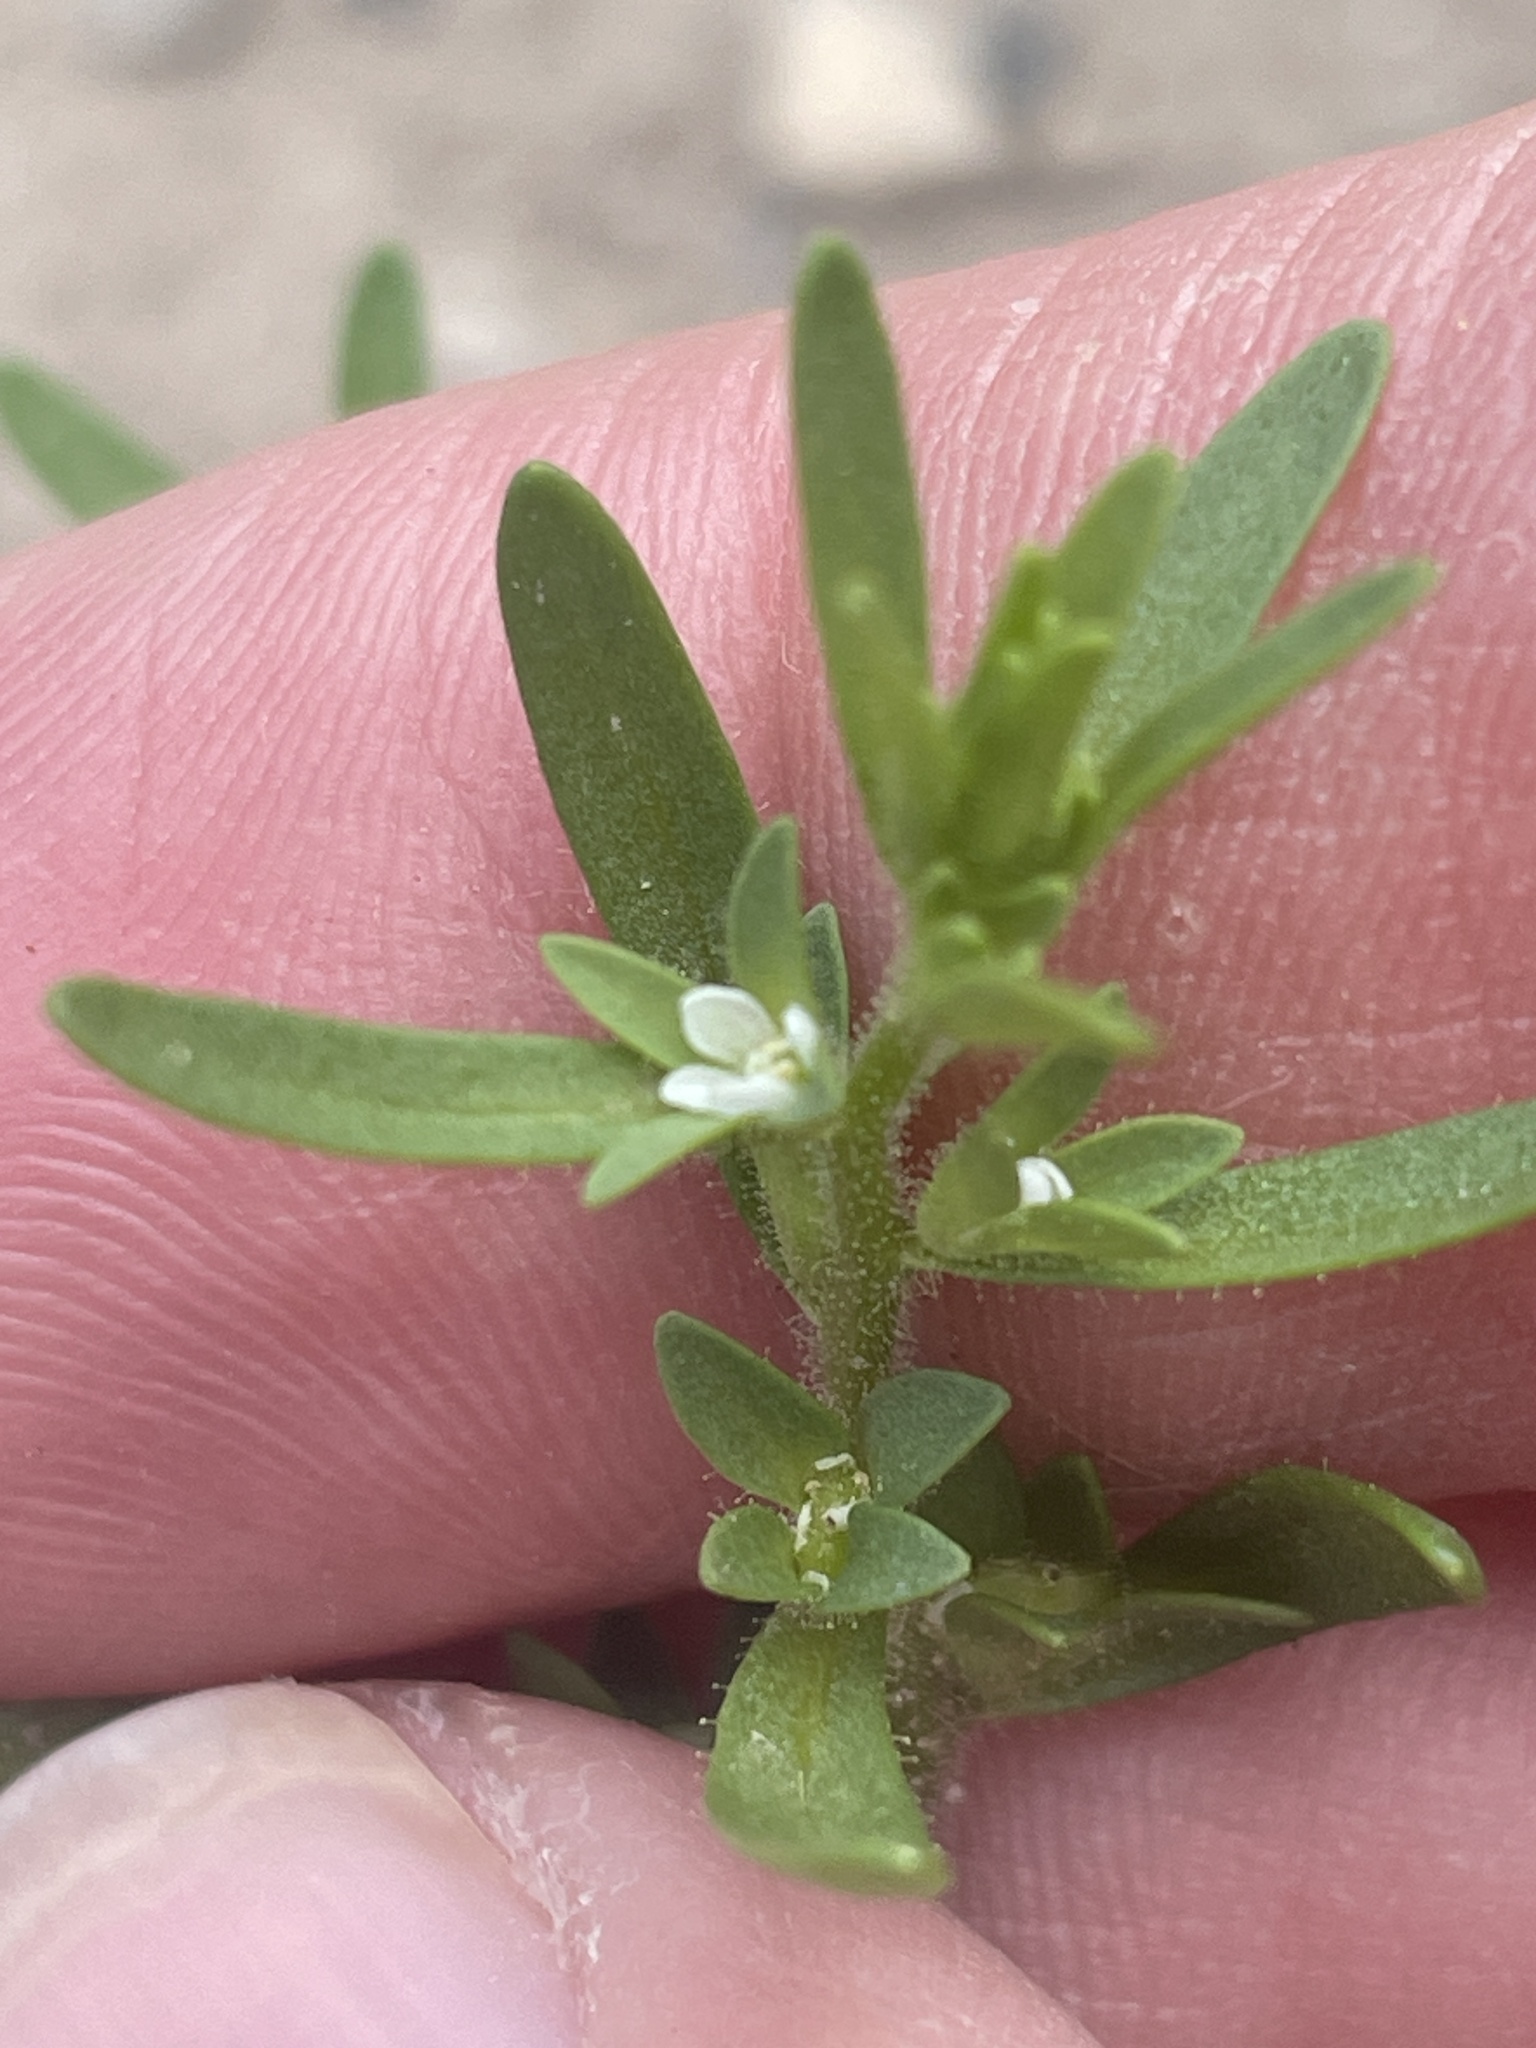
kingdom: Plantae
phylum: Tracheophyta
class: Magnoliopsida
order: Lamiales
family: Plantaginaceae
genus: Veronica
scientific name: Veronica peregrina
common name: Neckweed
